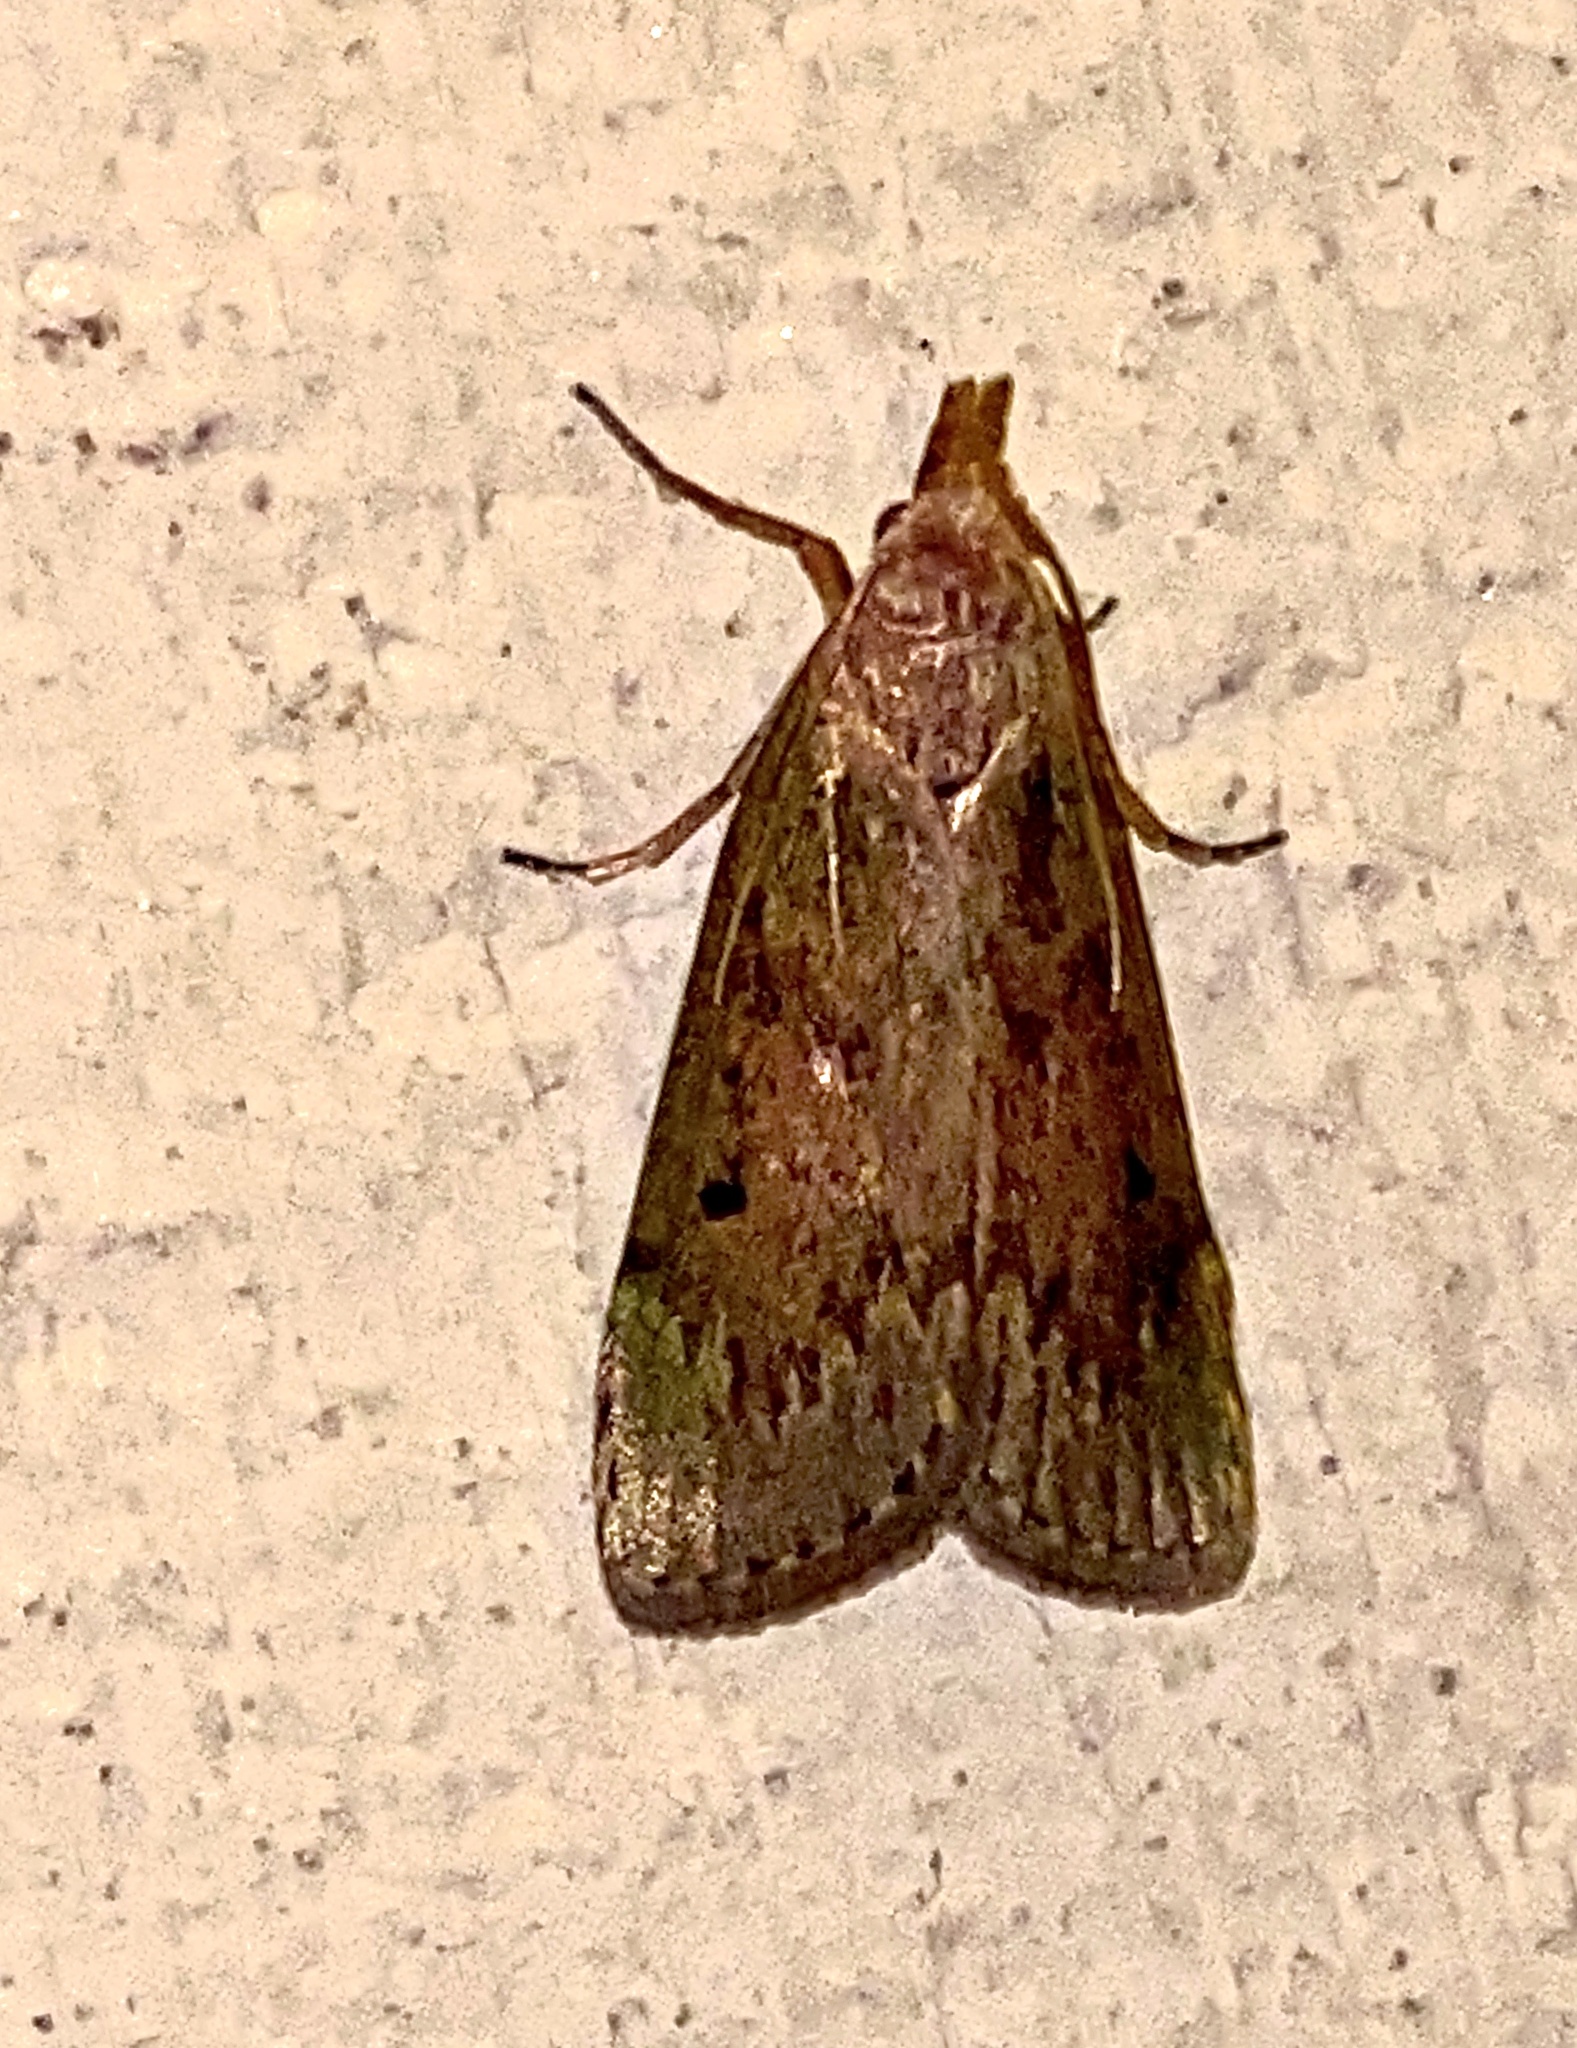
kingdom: Animalia
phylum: Arthropoda
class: Insecta
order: Lepidoptera
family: Pyralidae
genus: Aphomia
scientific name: Aphomia sociella
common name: Bee moth
